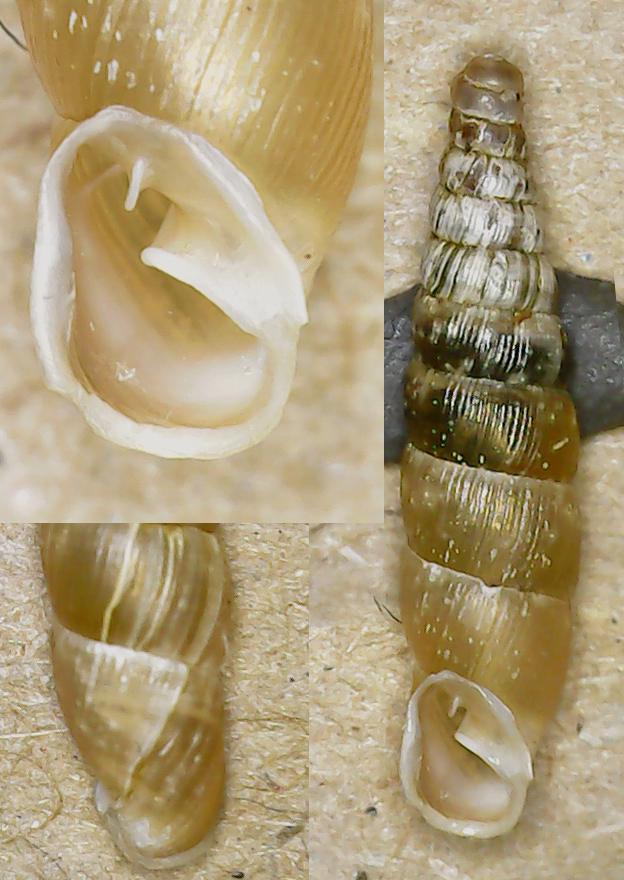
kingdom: Animalia
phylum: Mollusca
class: Gastropoda
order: Stylommatophora
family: Clausiliidae
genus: Cochlodina
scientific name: Cochlodina orthostoma
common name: Straightmouth door snail
